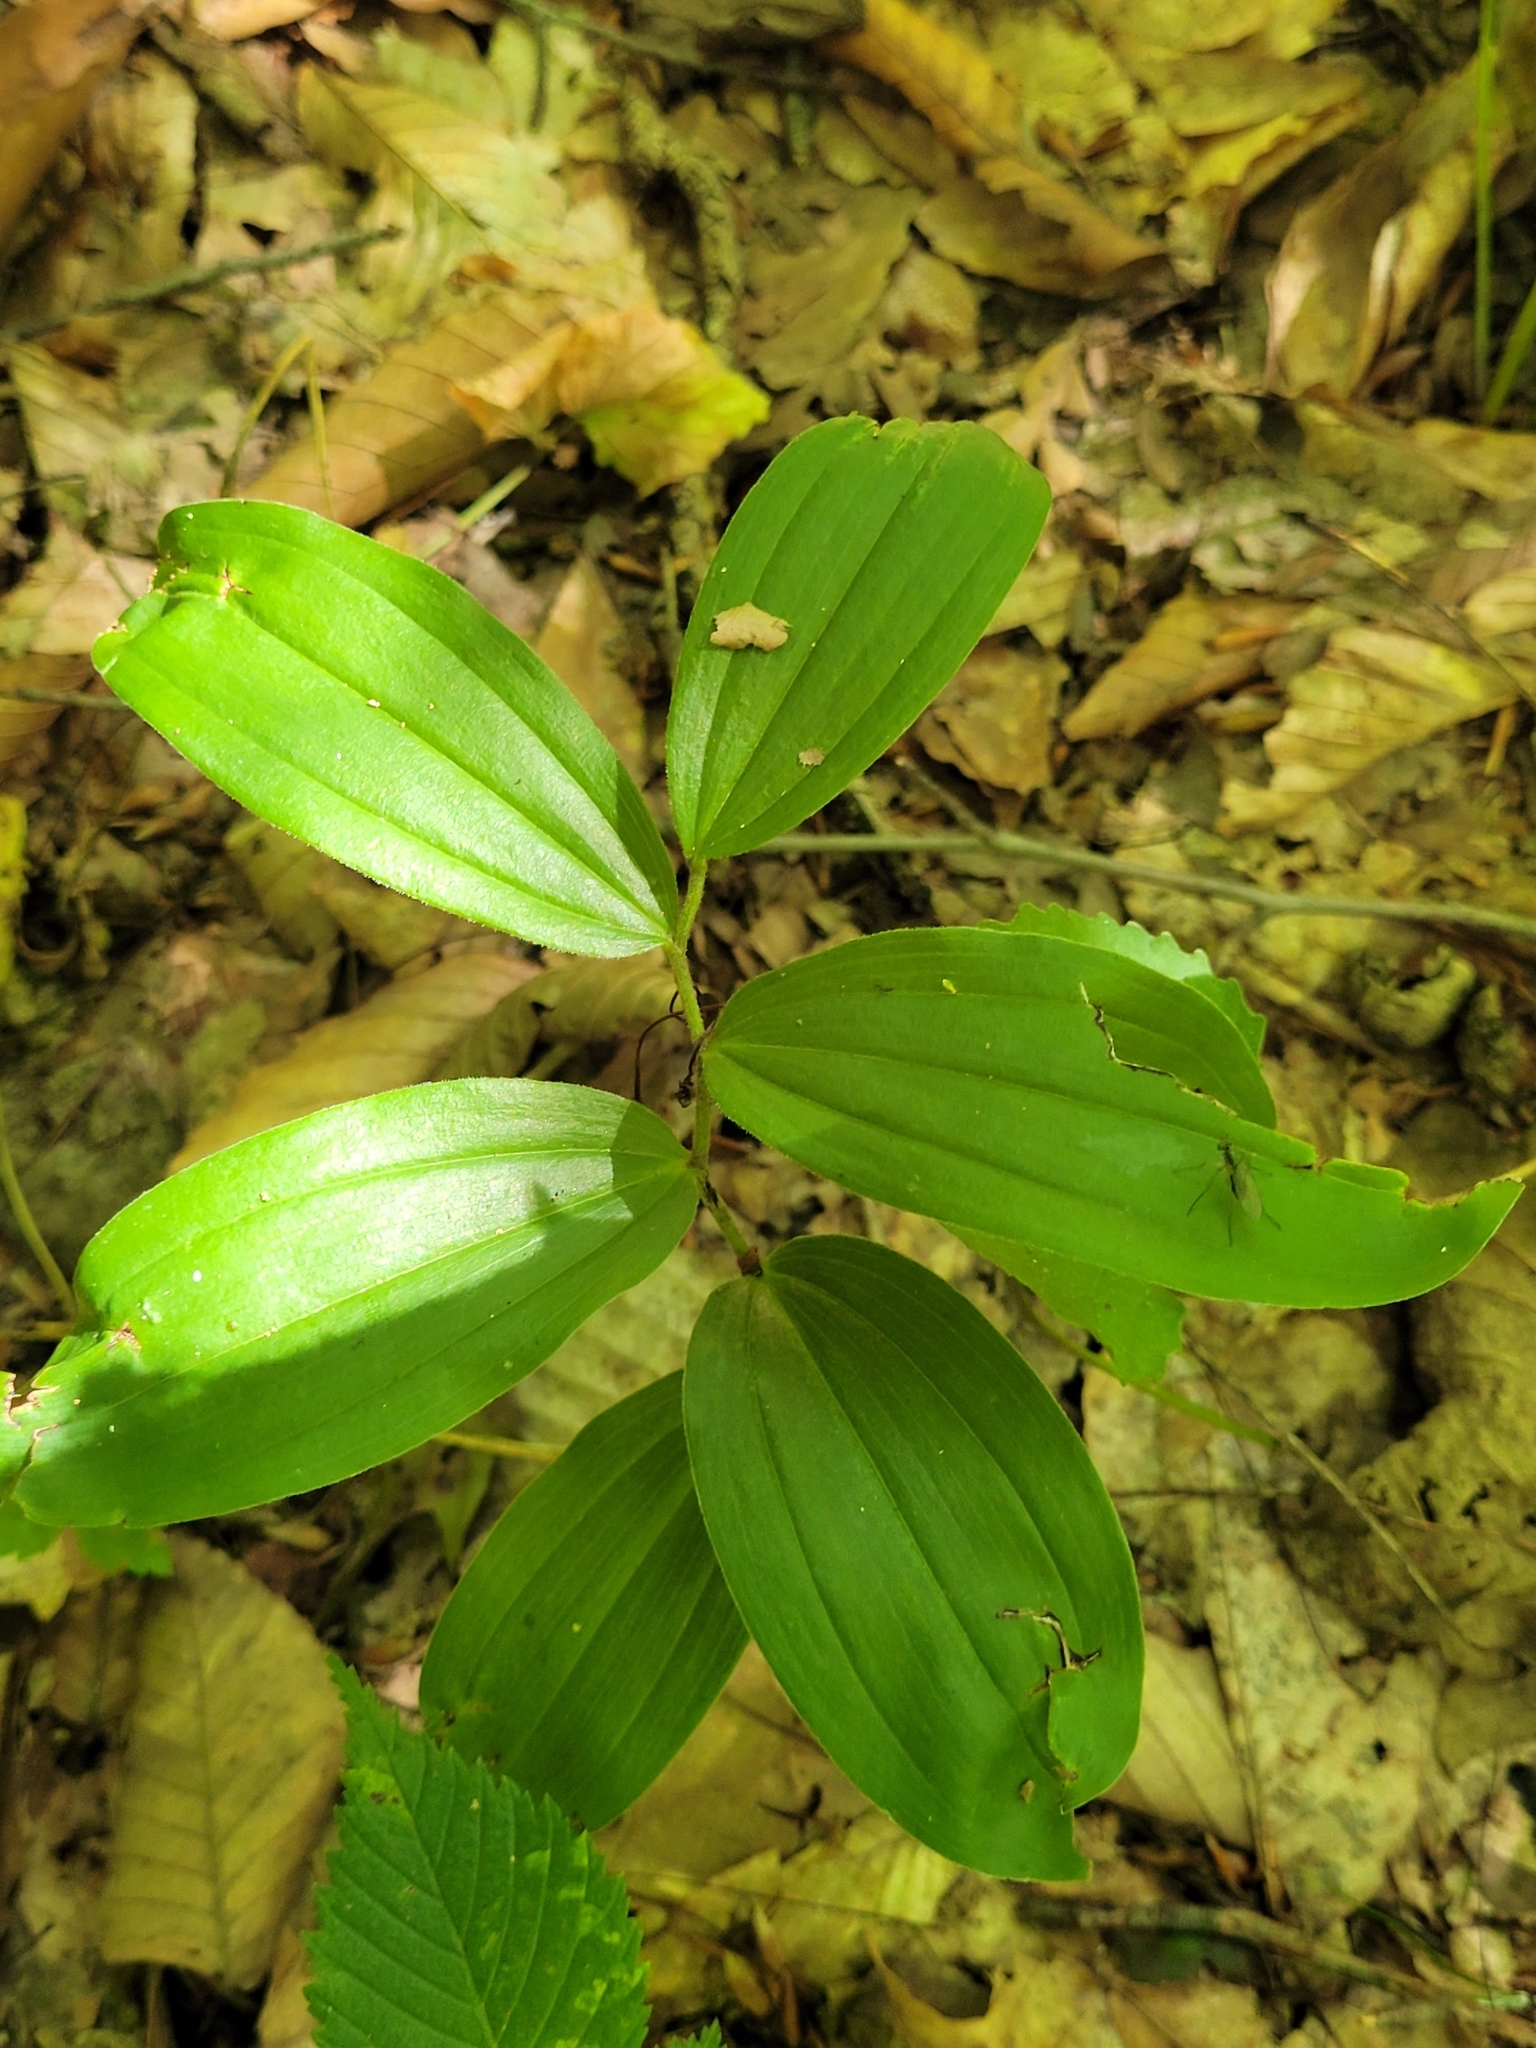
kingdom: Plantae
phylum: Tracheophyta
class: Liliopsida
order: Asparagales
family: Asparagaceae
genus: Maianthemum
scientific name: Maianthemum racemosum
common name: False spikenard
